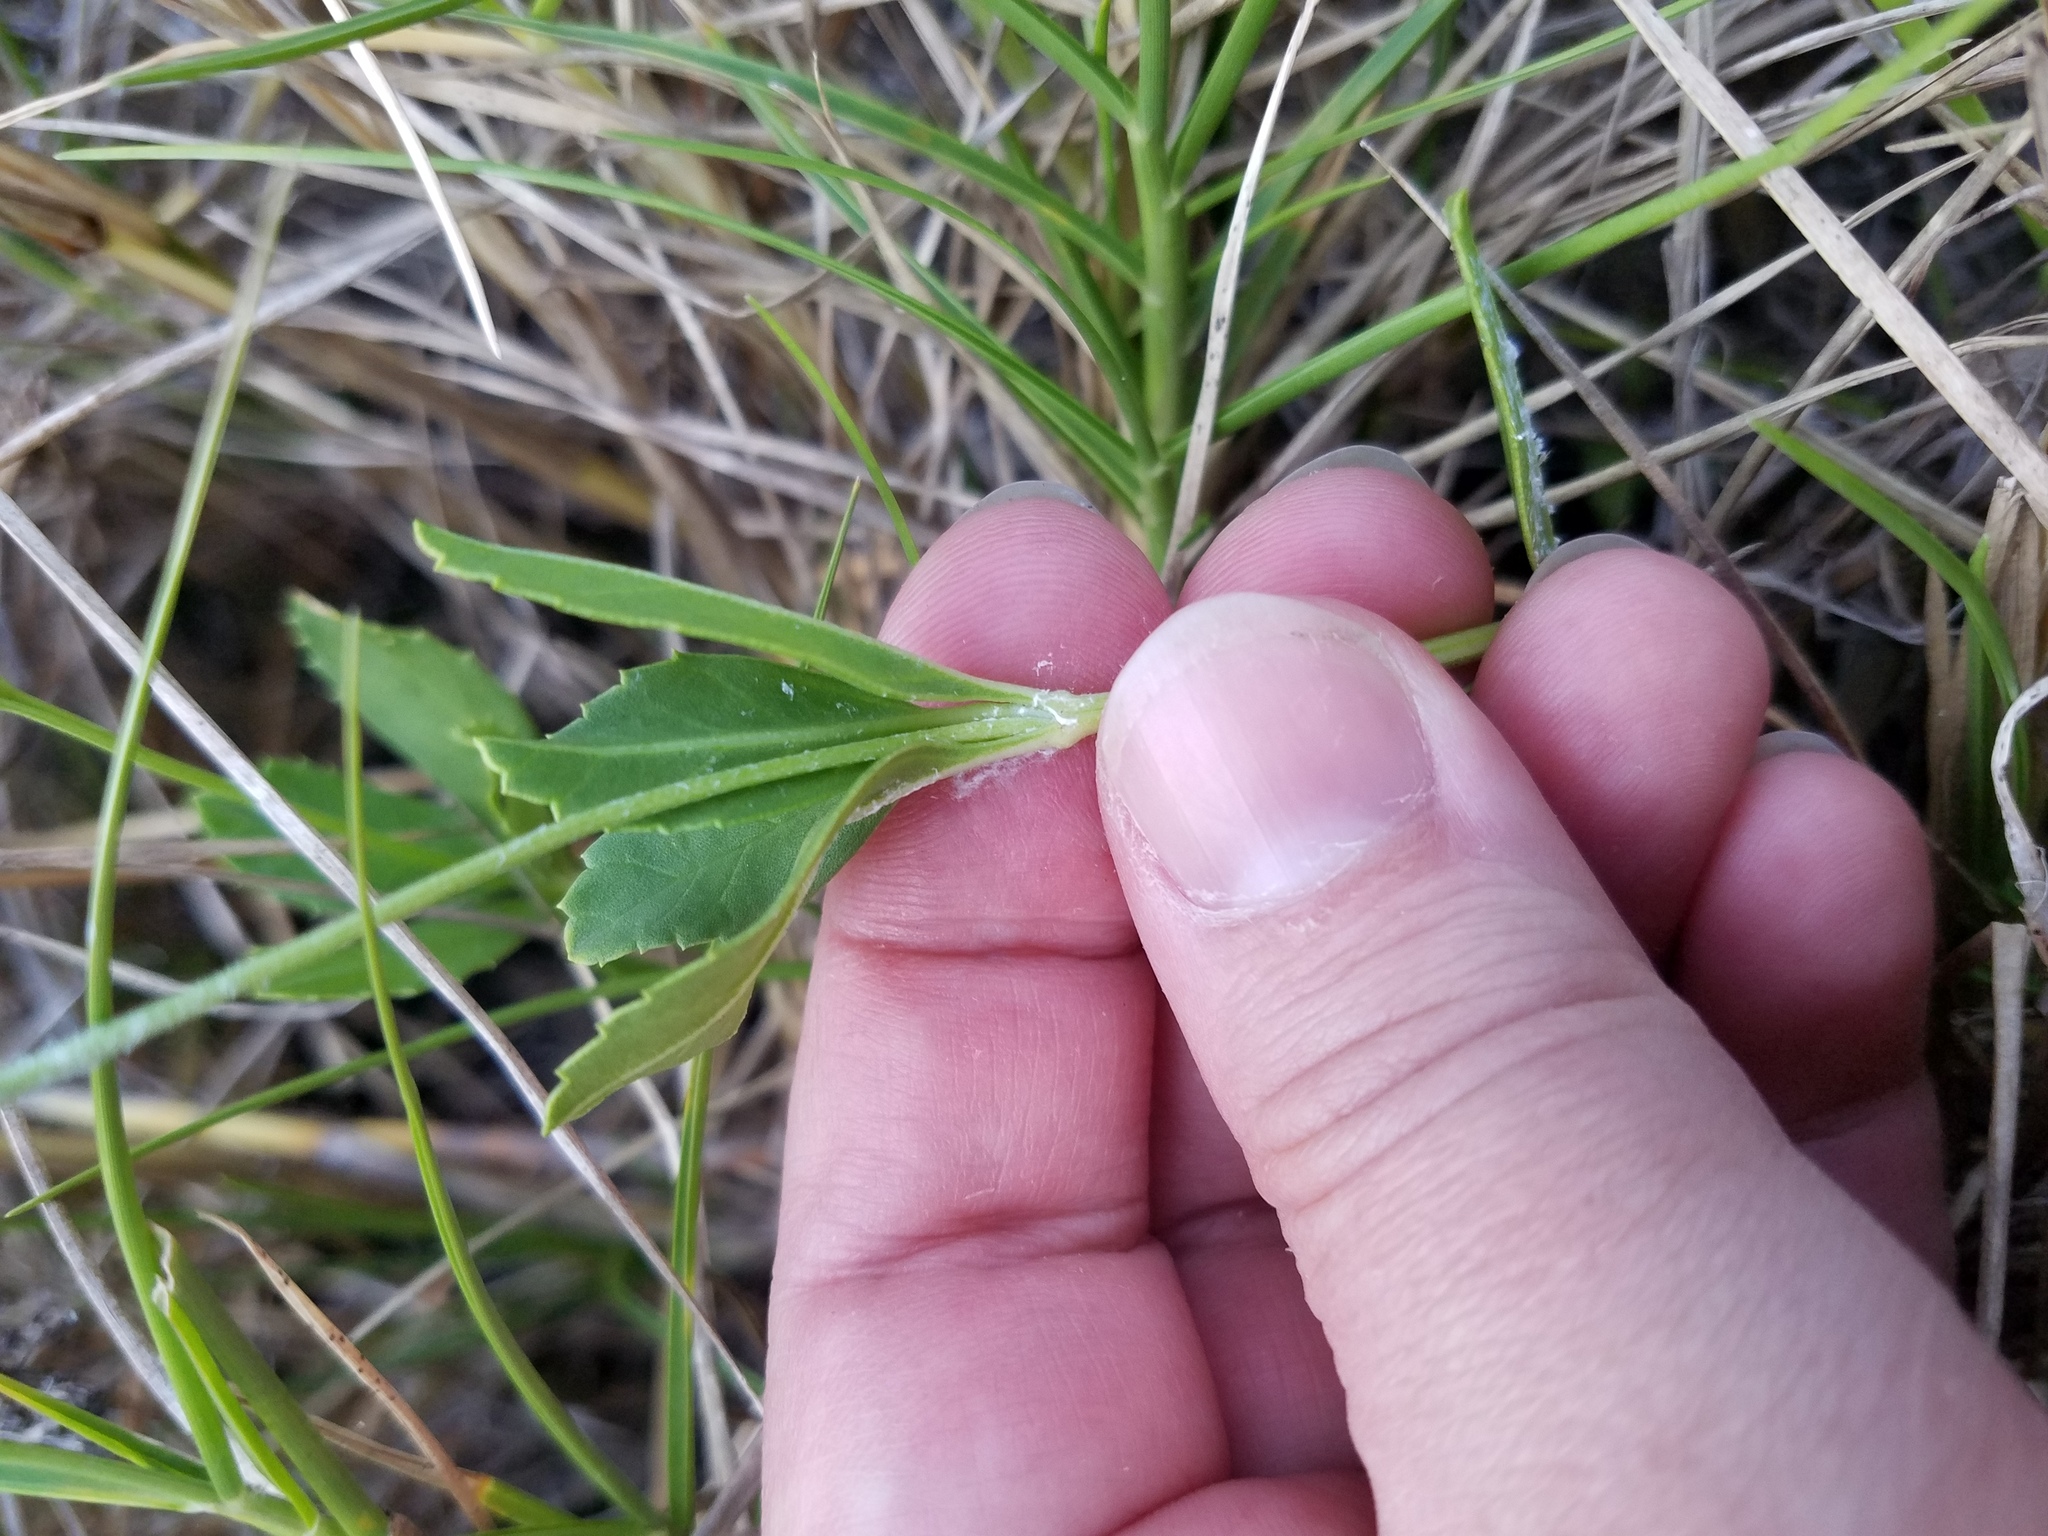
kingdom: Plantae
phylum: Tracheophyta
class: Magnoliopsida
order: Lamiales
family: Verbenaceae
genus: Phyla
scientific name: Phyla nodiflora
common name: Frogfruit
